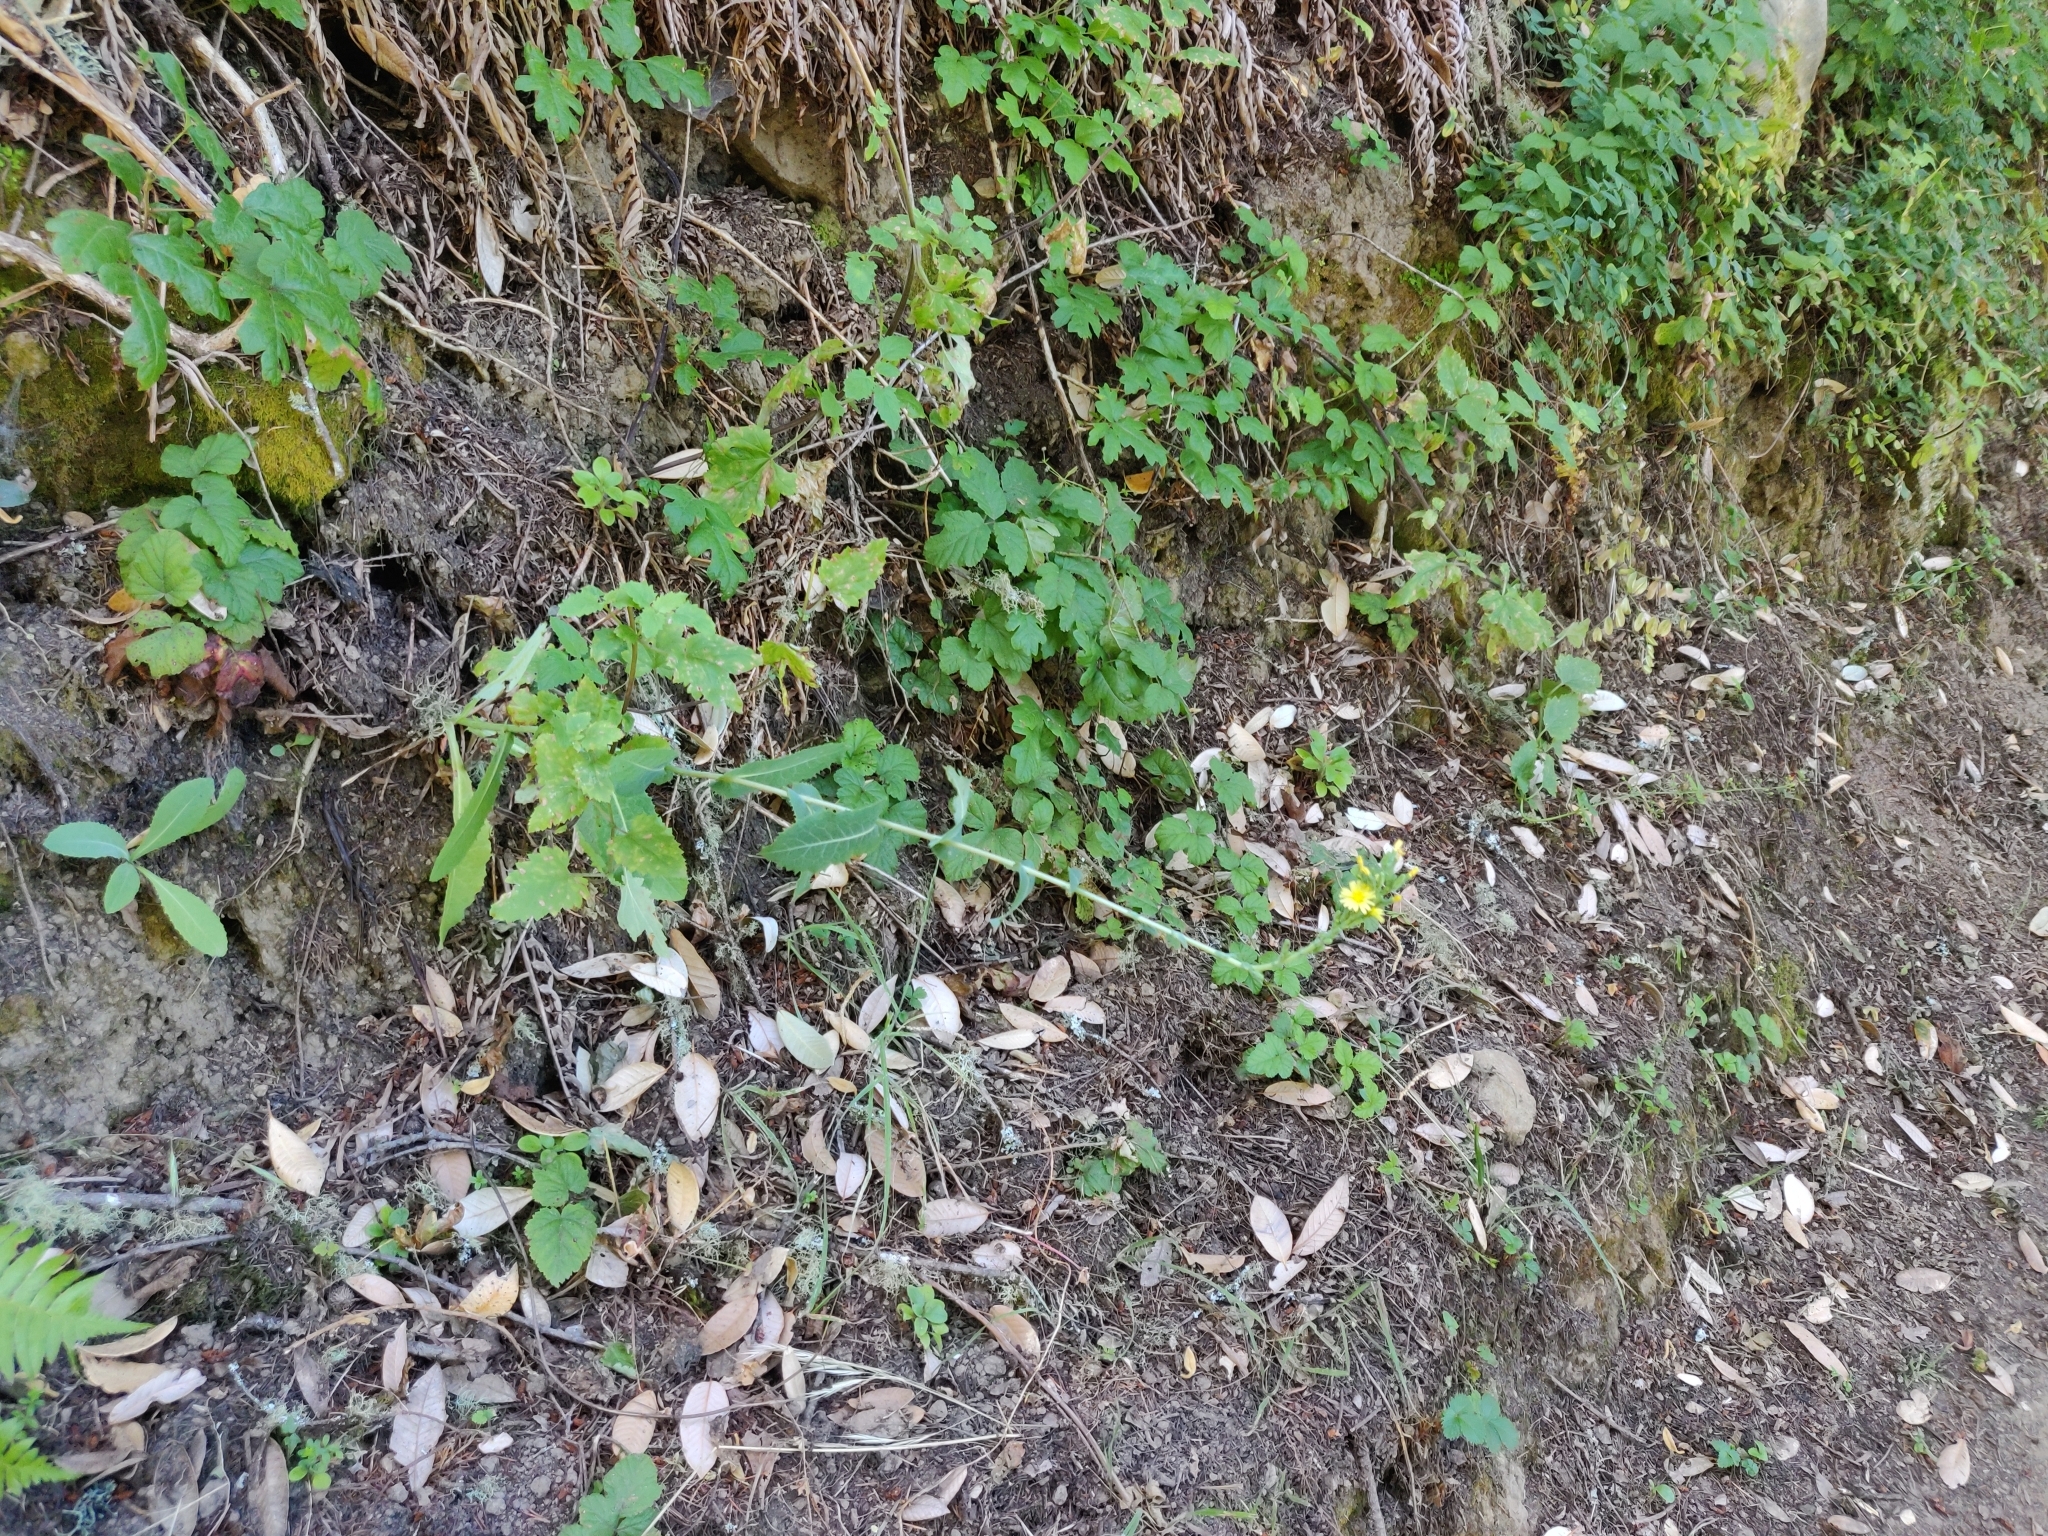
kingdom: Plantae
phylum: Tracheophyta
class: Magnoliopsida
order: Asterales
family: Asteraceae
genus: Lactuca
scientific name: Lactuca virosa
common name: Great lettuce
